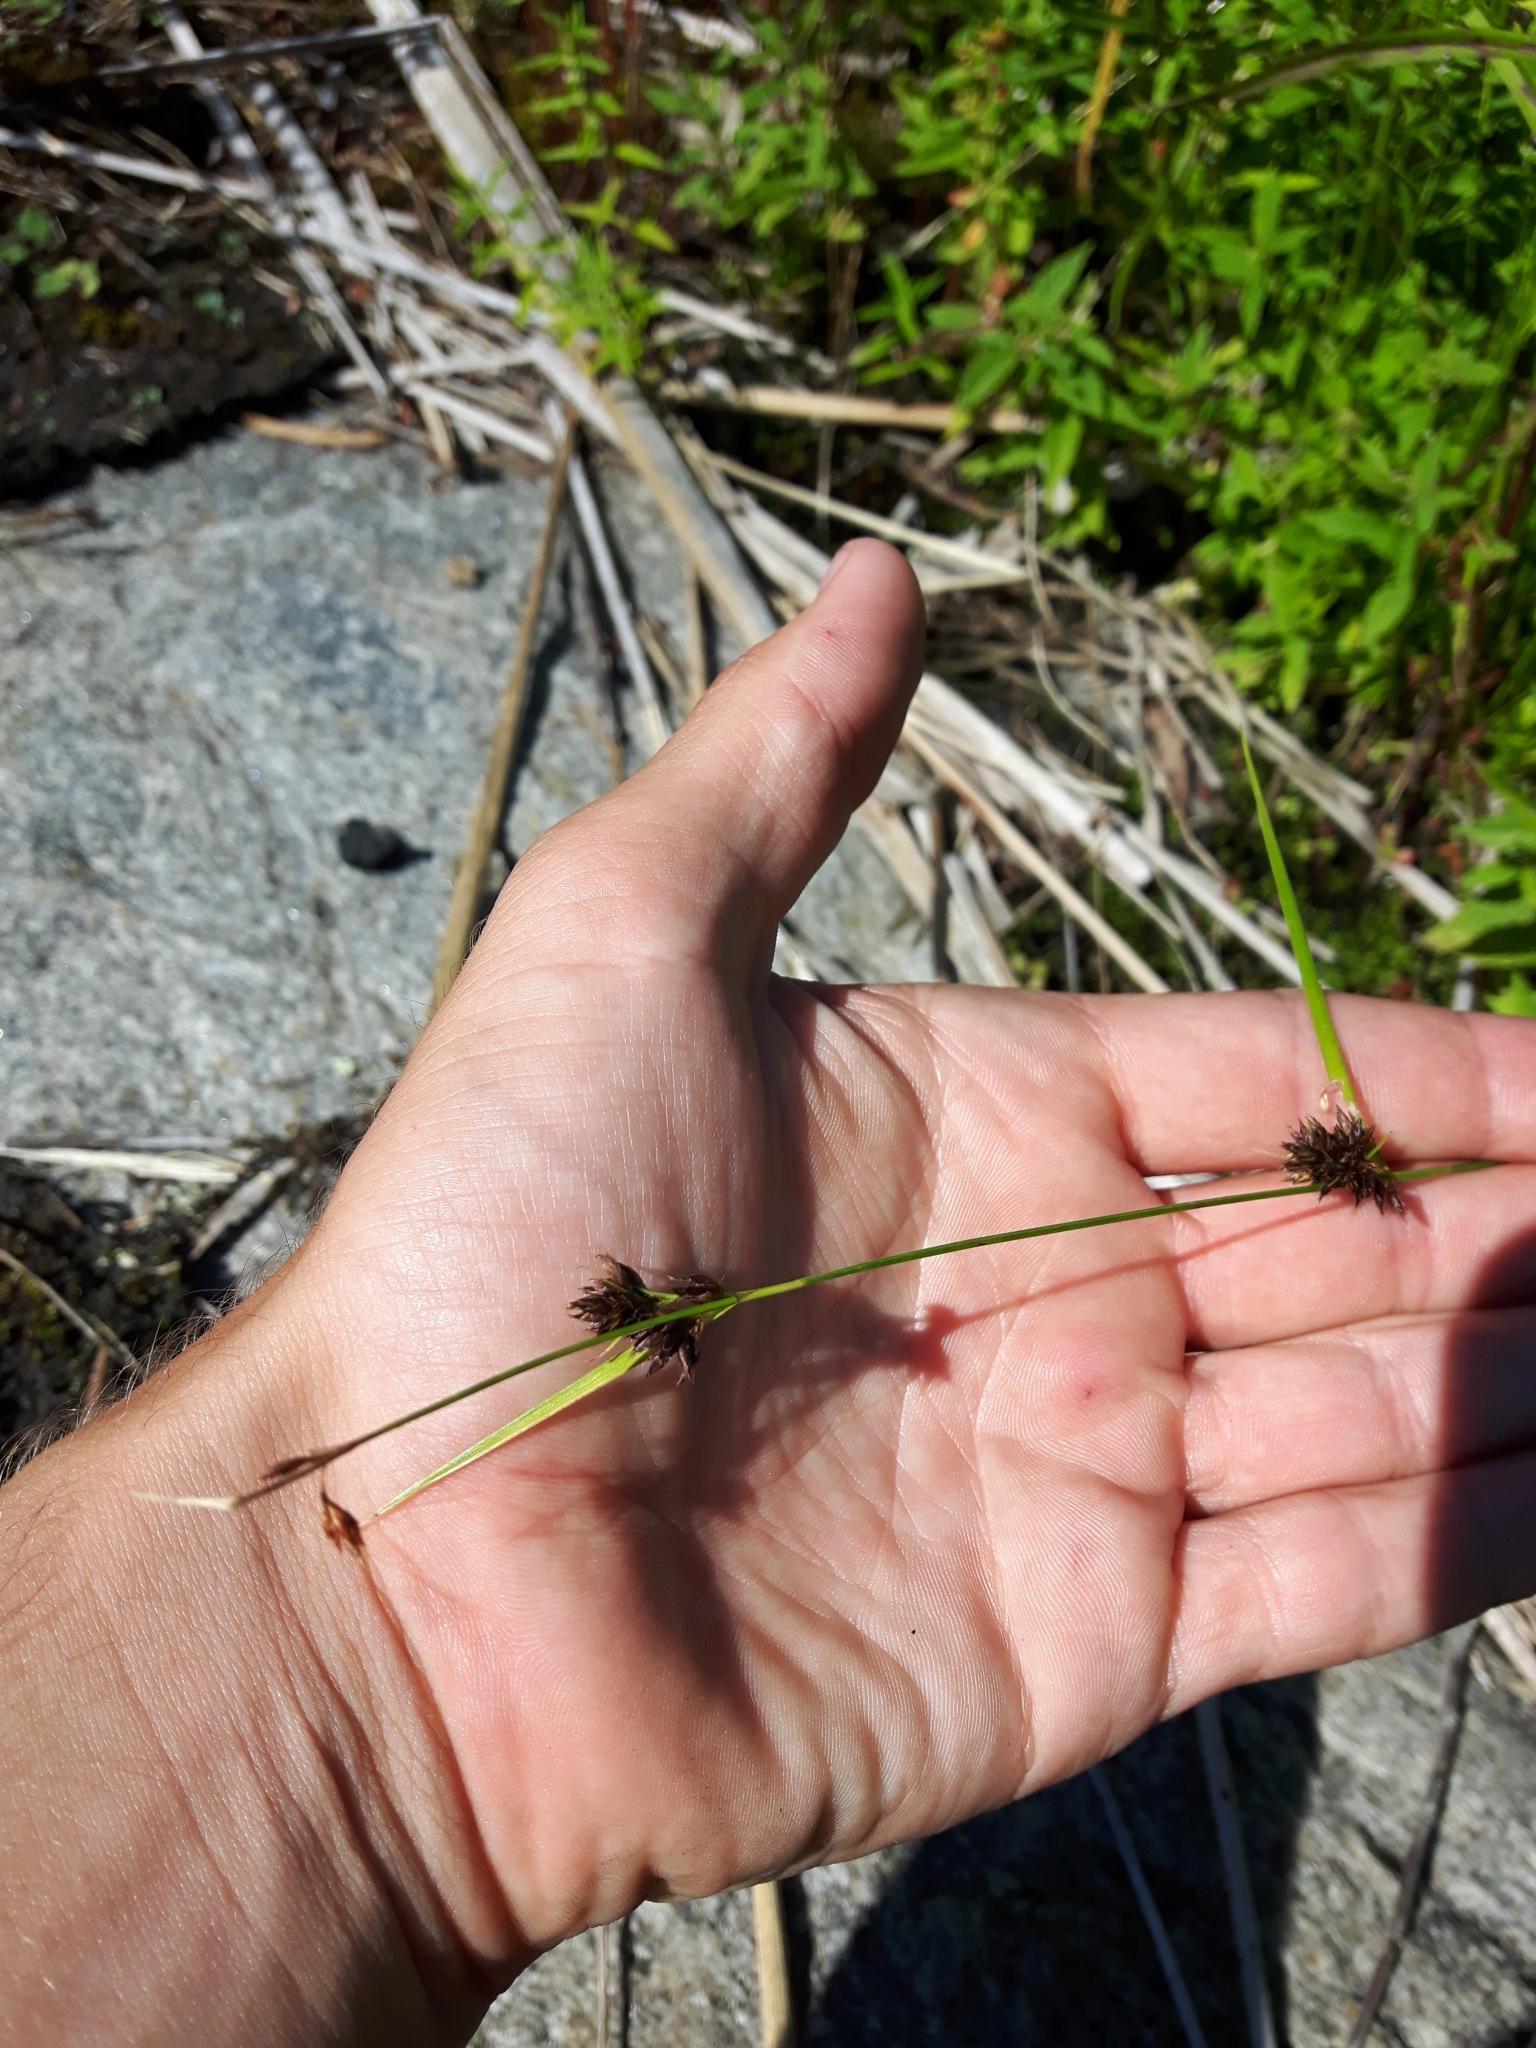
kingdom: Plantae
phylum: Tracheophyta
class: Liliopsida
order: Poales
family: Cyperaceae
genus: Rhynchospora
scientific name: Rhynchospora capitellata
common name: Brownish beaksedge
